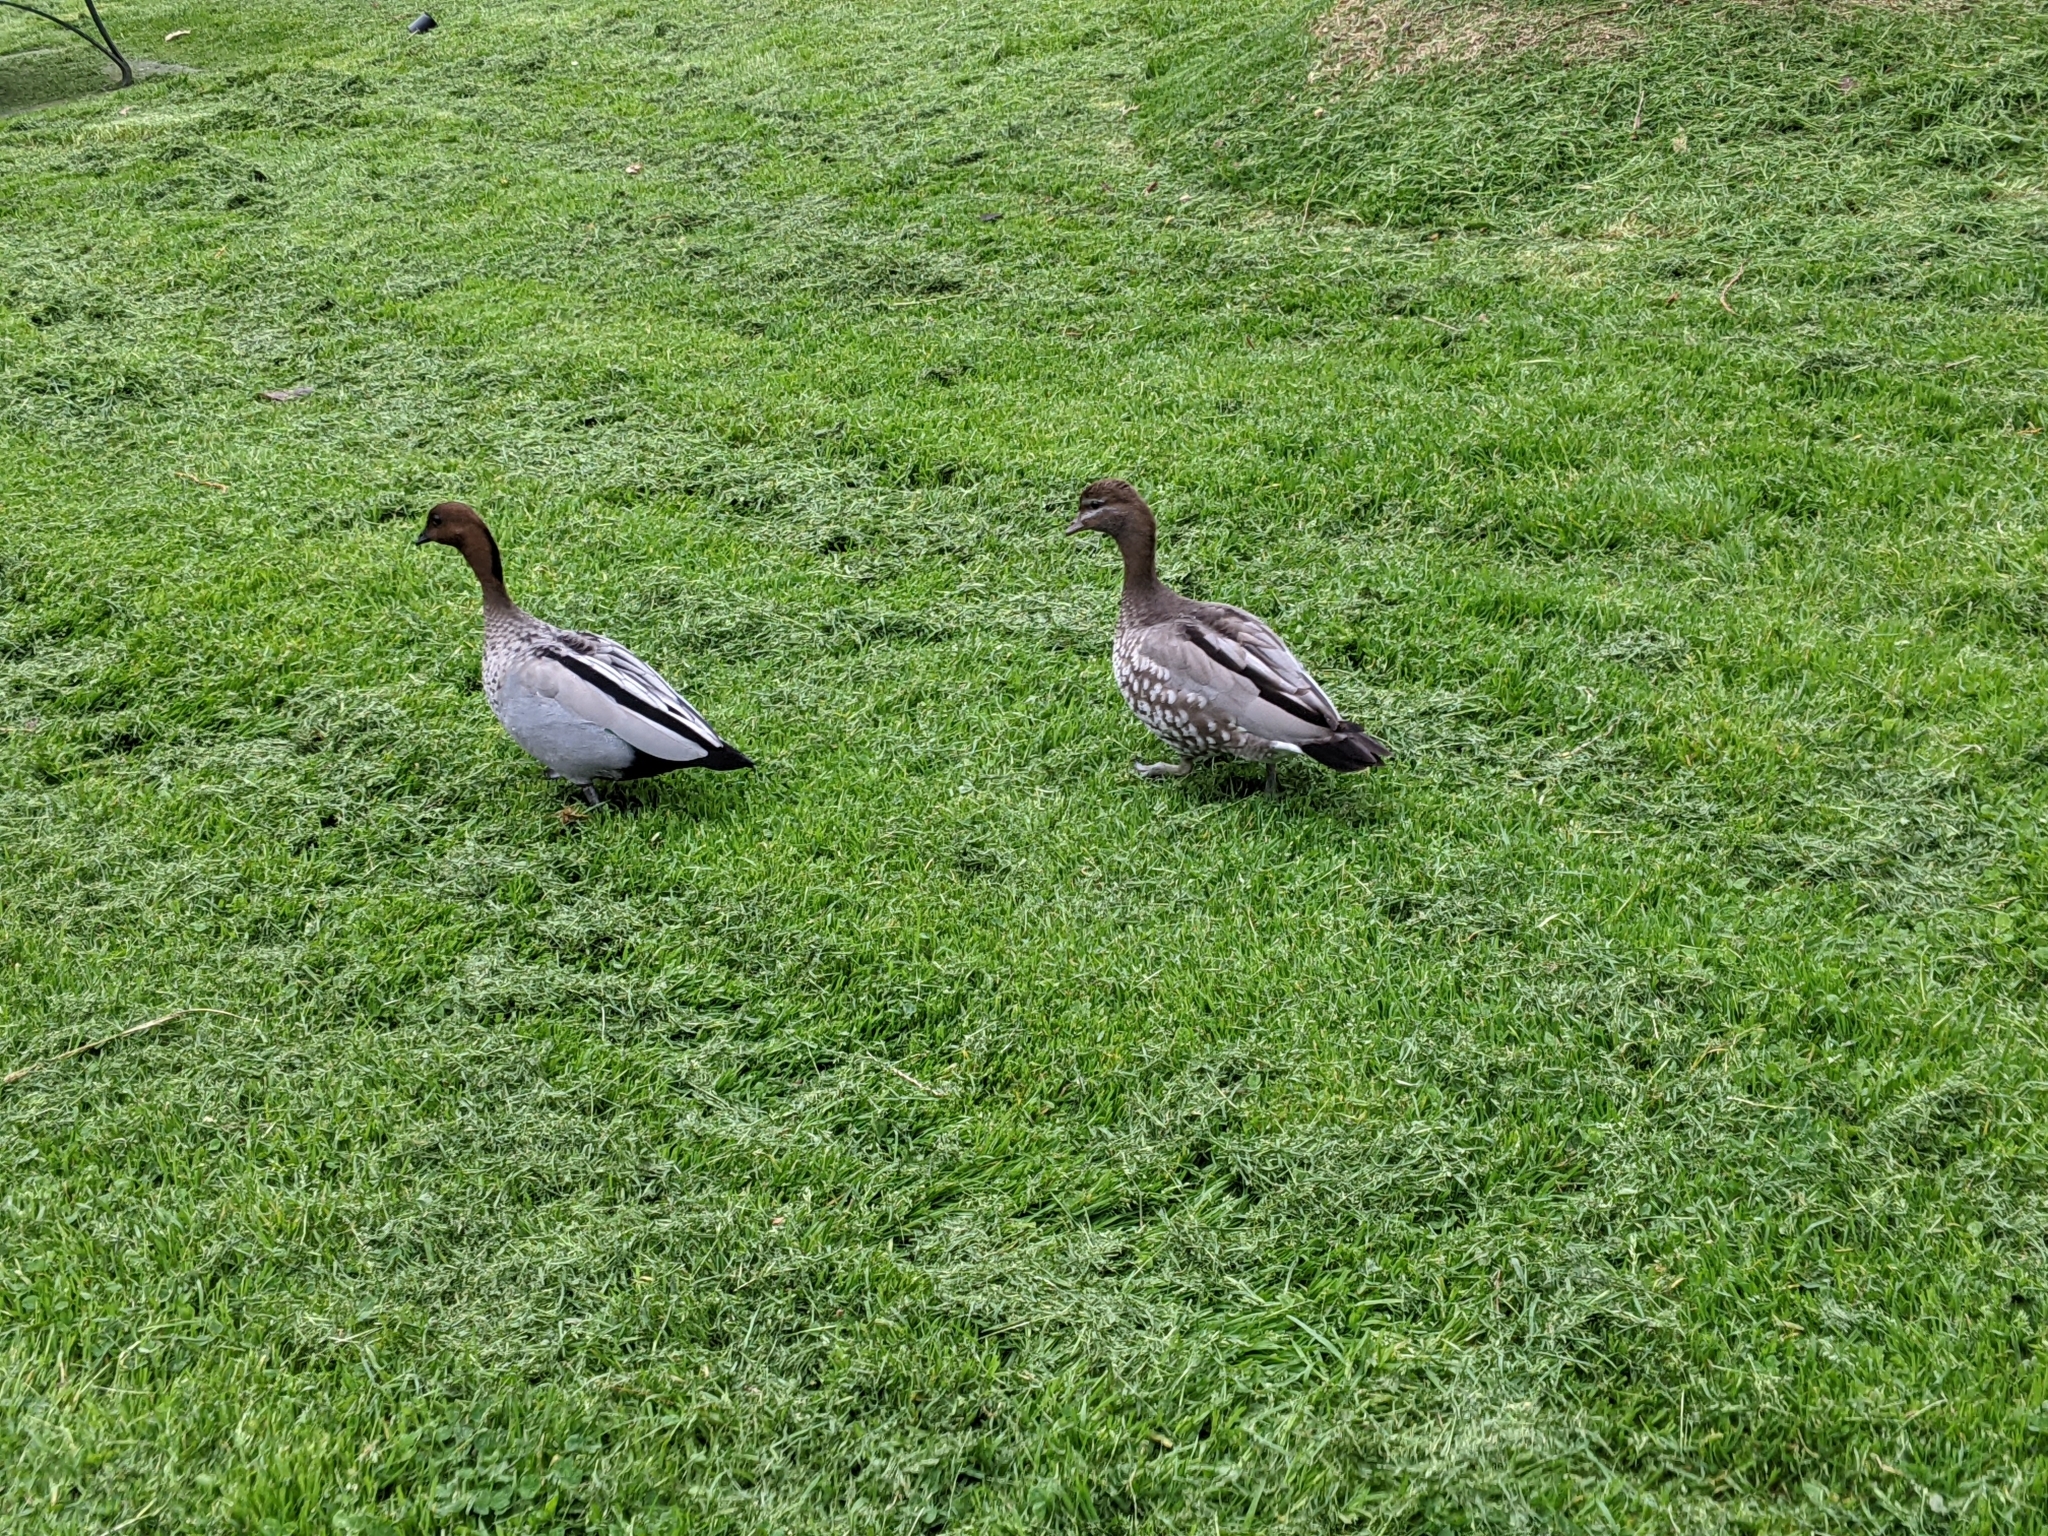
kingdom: Animalia
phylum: Chordata
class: Aves
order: Anseriformes
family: Anatidae
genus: Chenonetta
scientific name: Chenonetta jubata
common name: Maned duck
